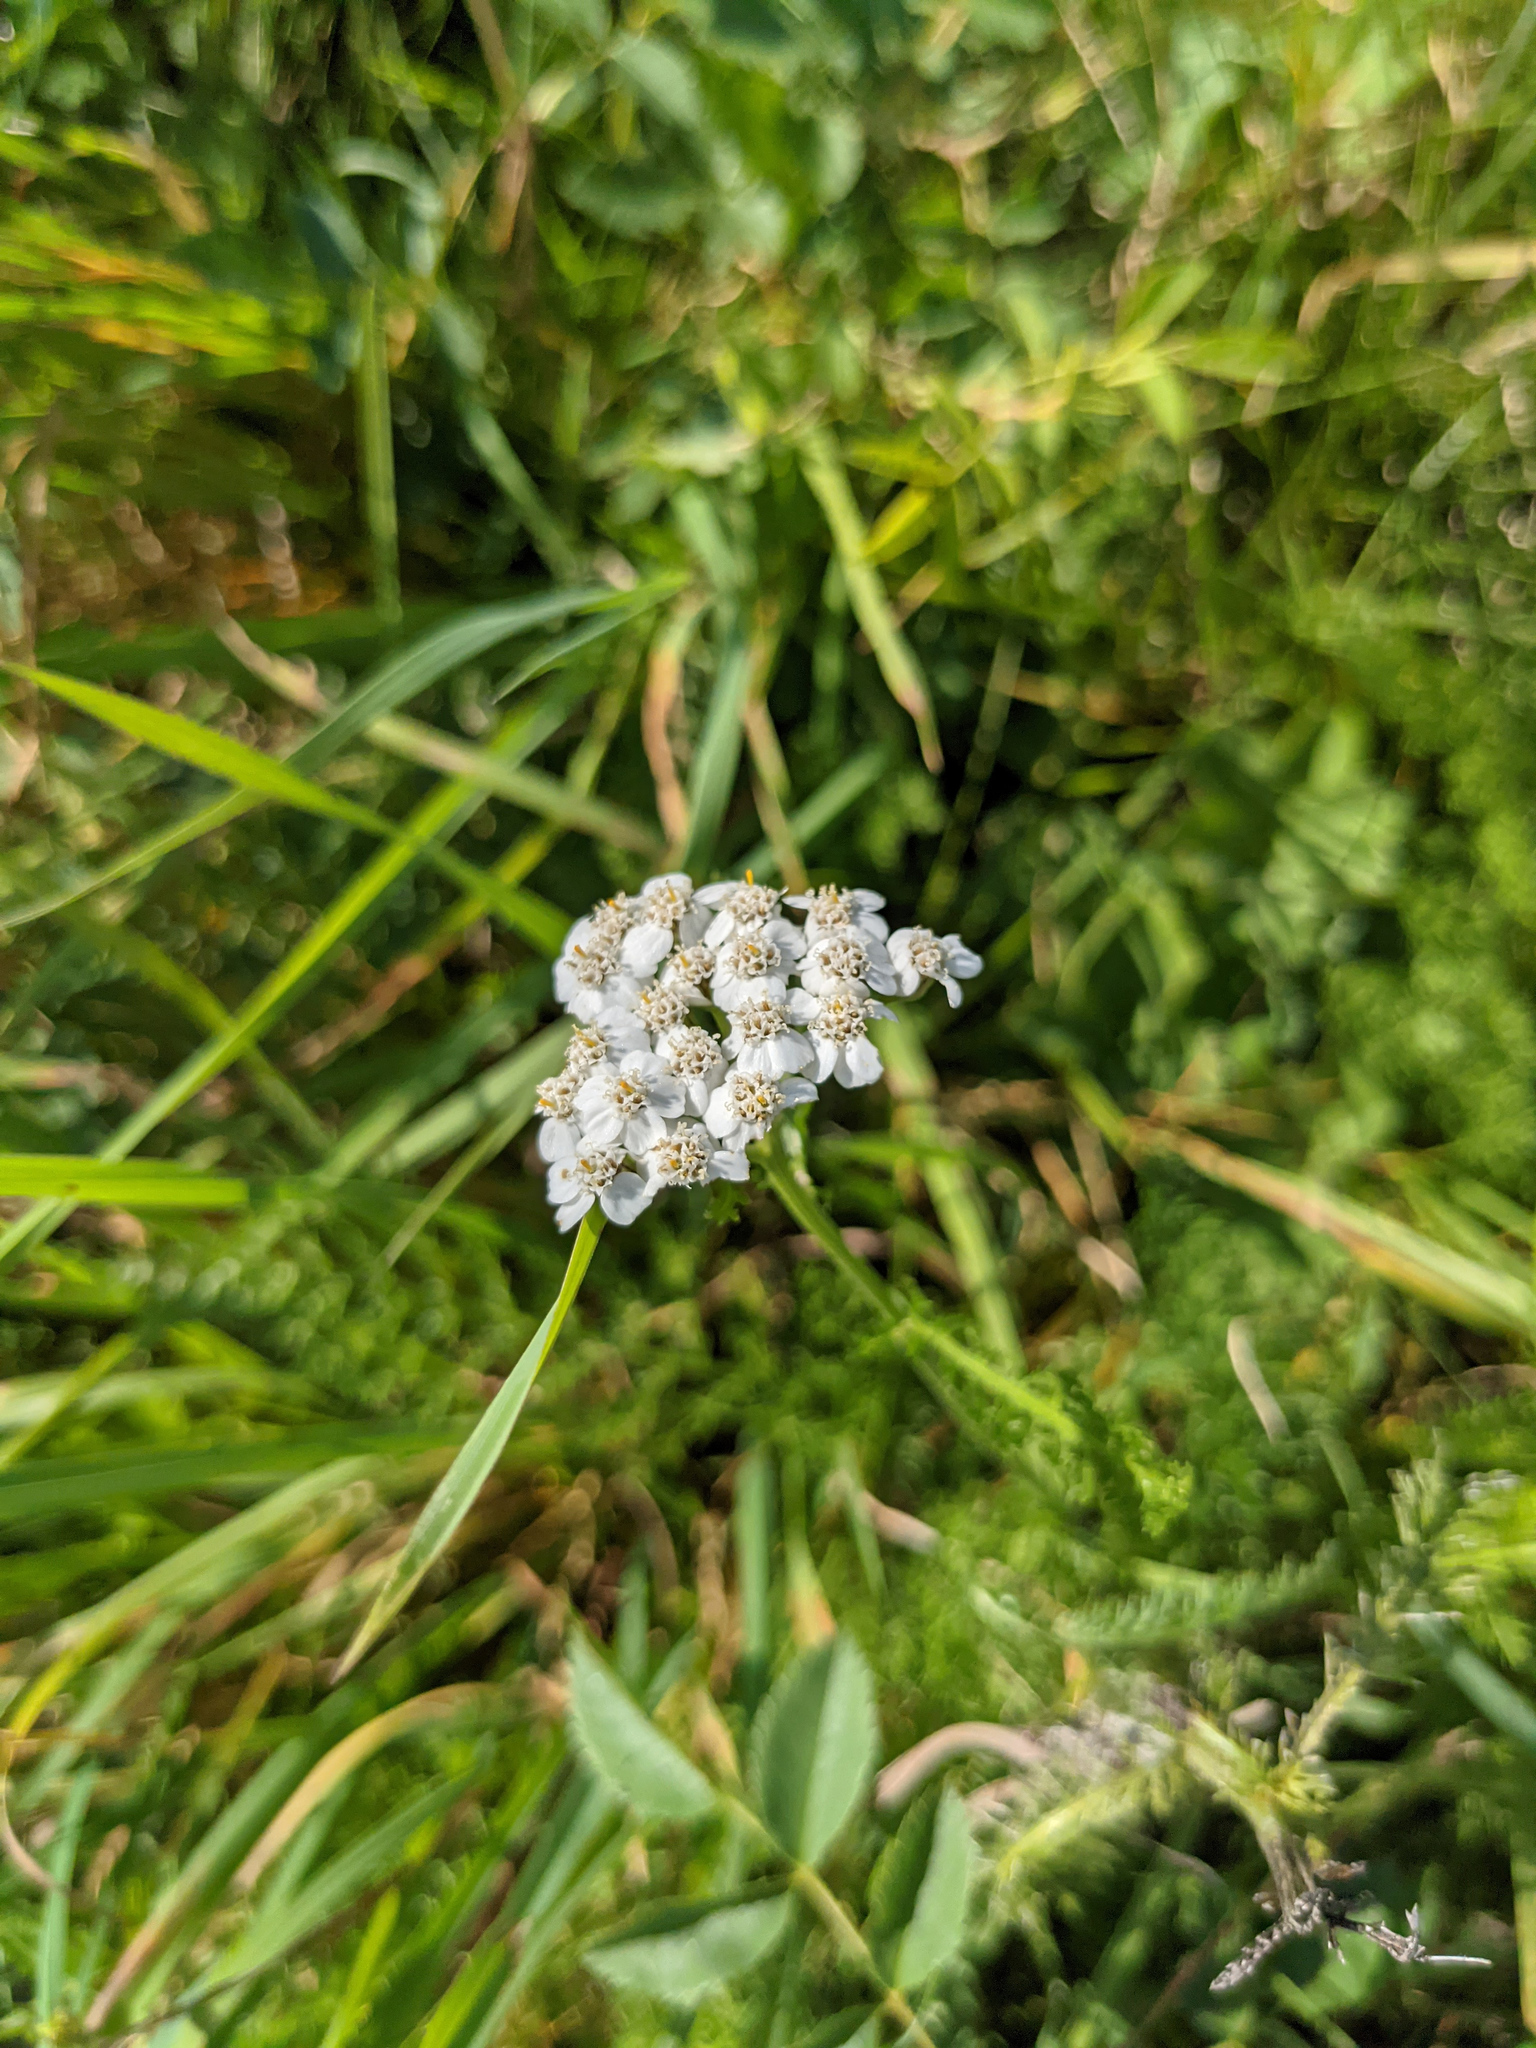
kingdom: Plantae
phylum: Tracheophyta
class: Magnoliopsida
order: Asterales
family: Asteraceae
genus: Achillea
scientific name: Achillea millefolium
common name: Yarrow
